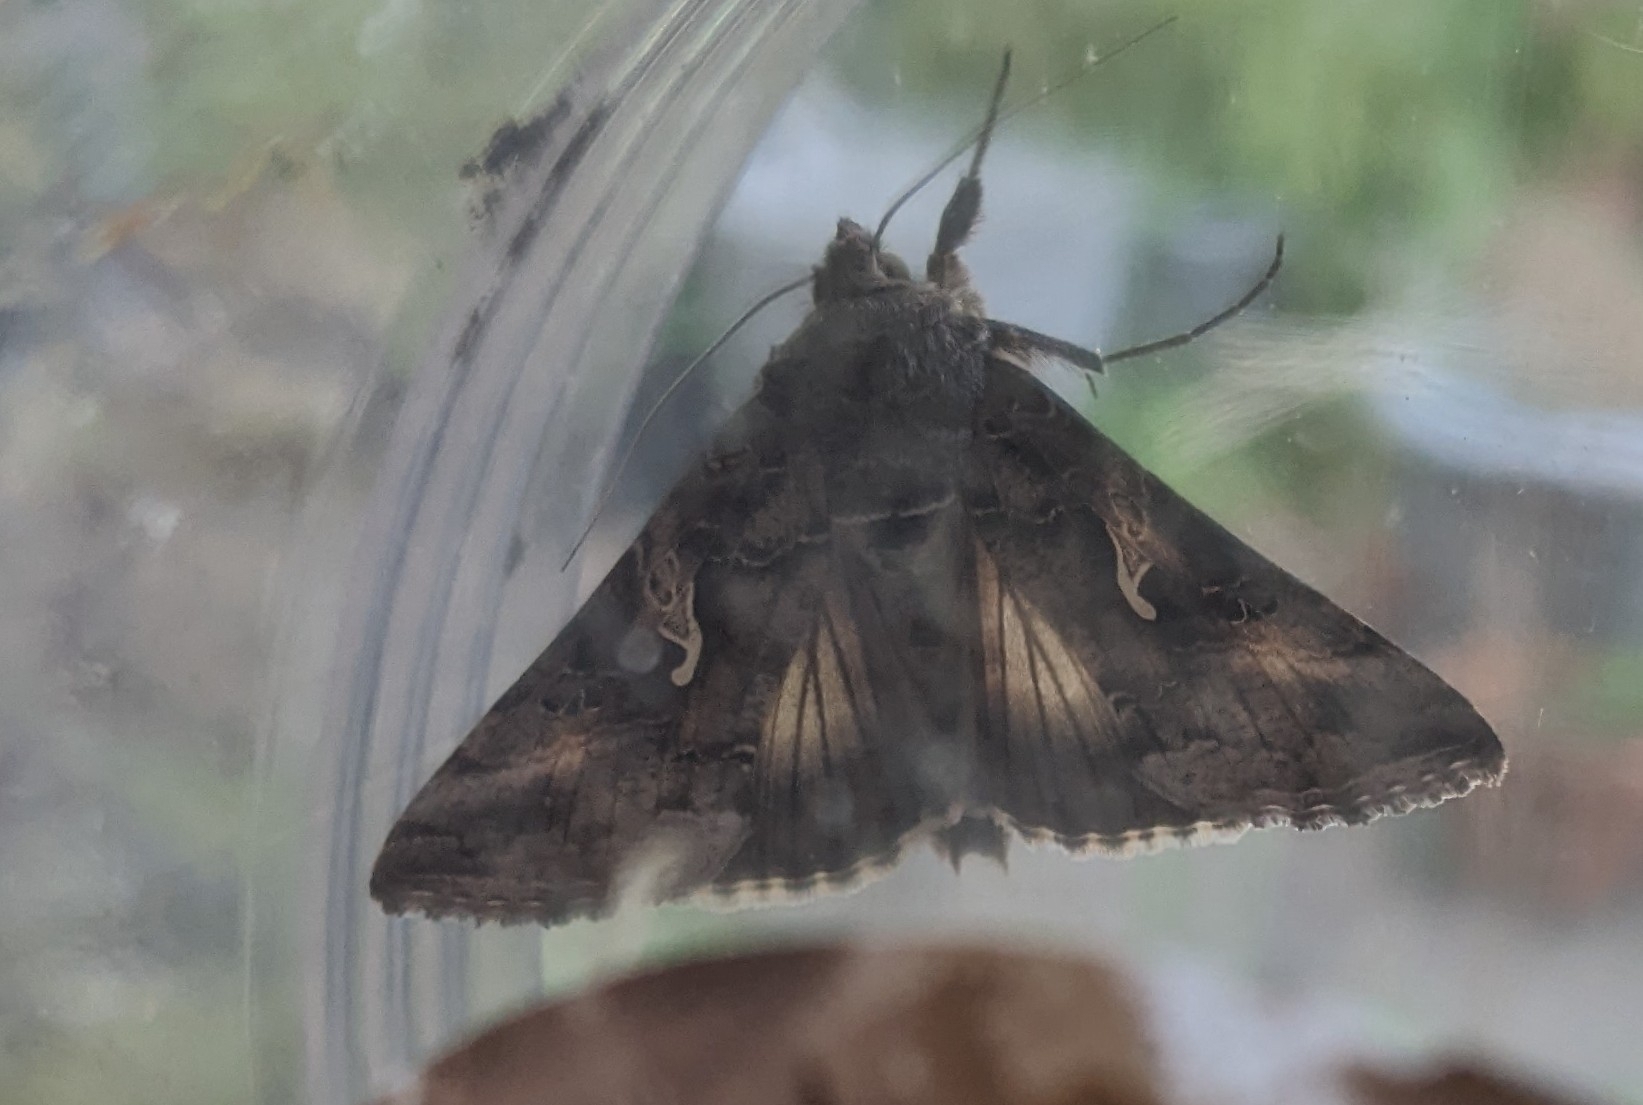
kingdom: Animalia
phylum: Arthropoda
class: Insecta
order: Lepidoptera
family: Noctuidae
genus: Autographa
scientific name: Autographa gamma
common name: Silver y
